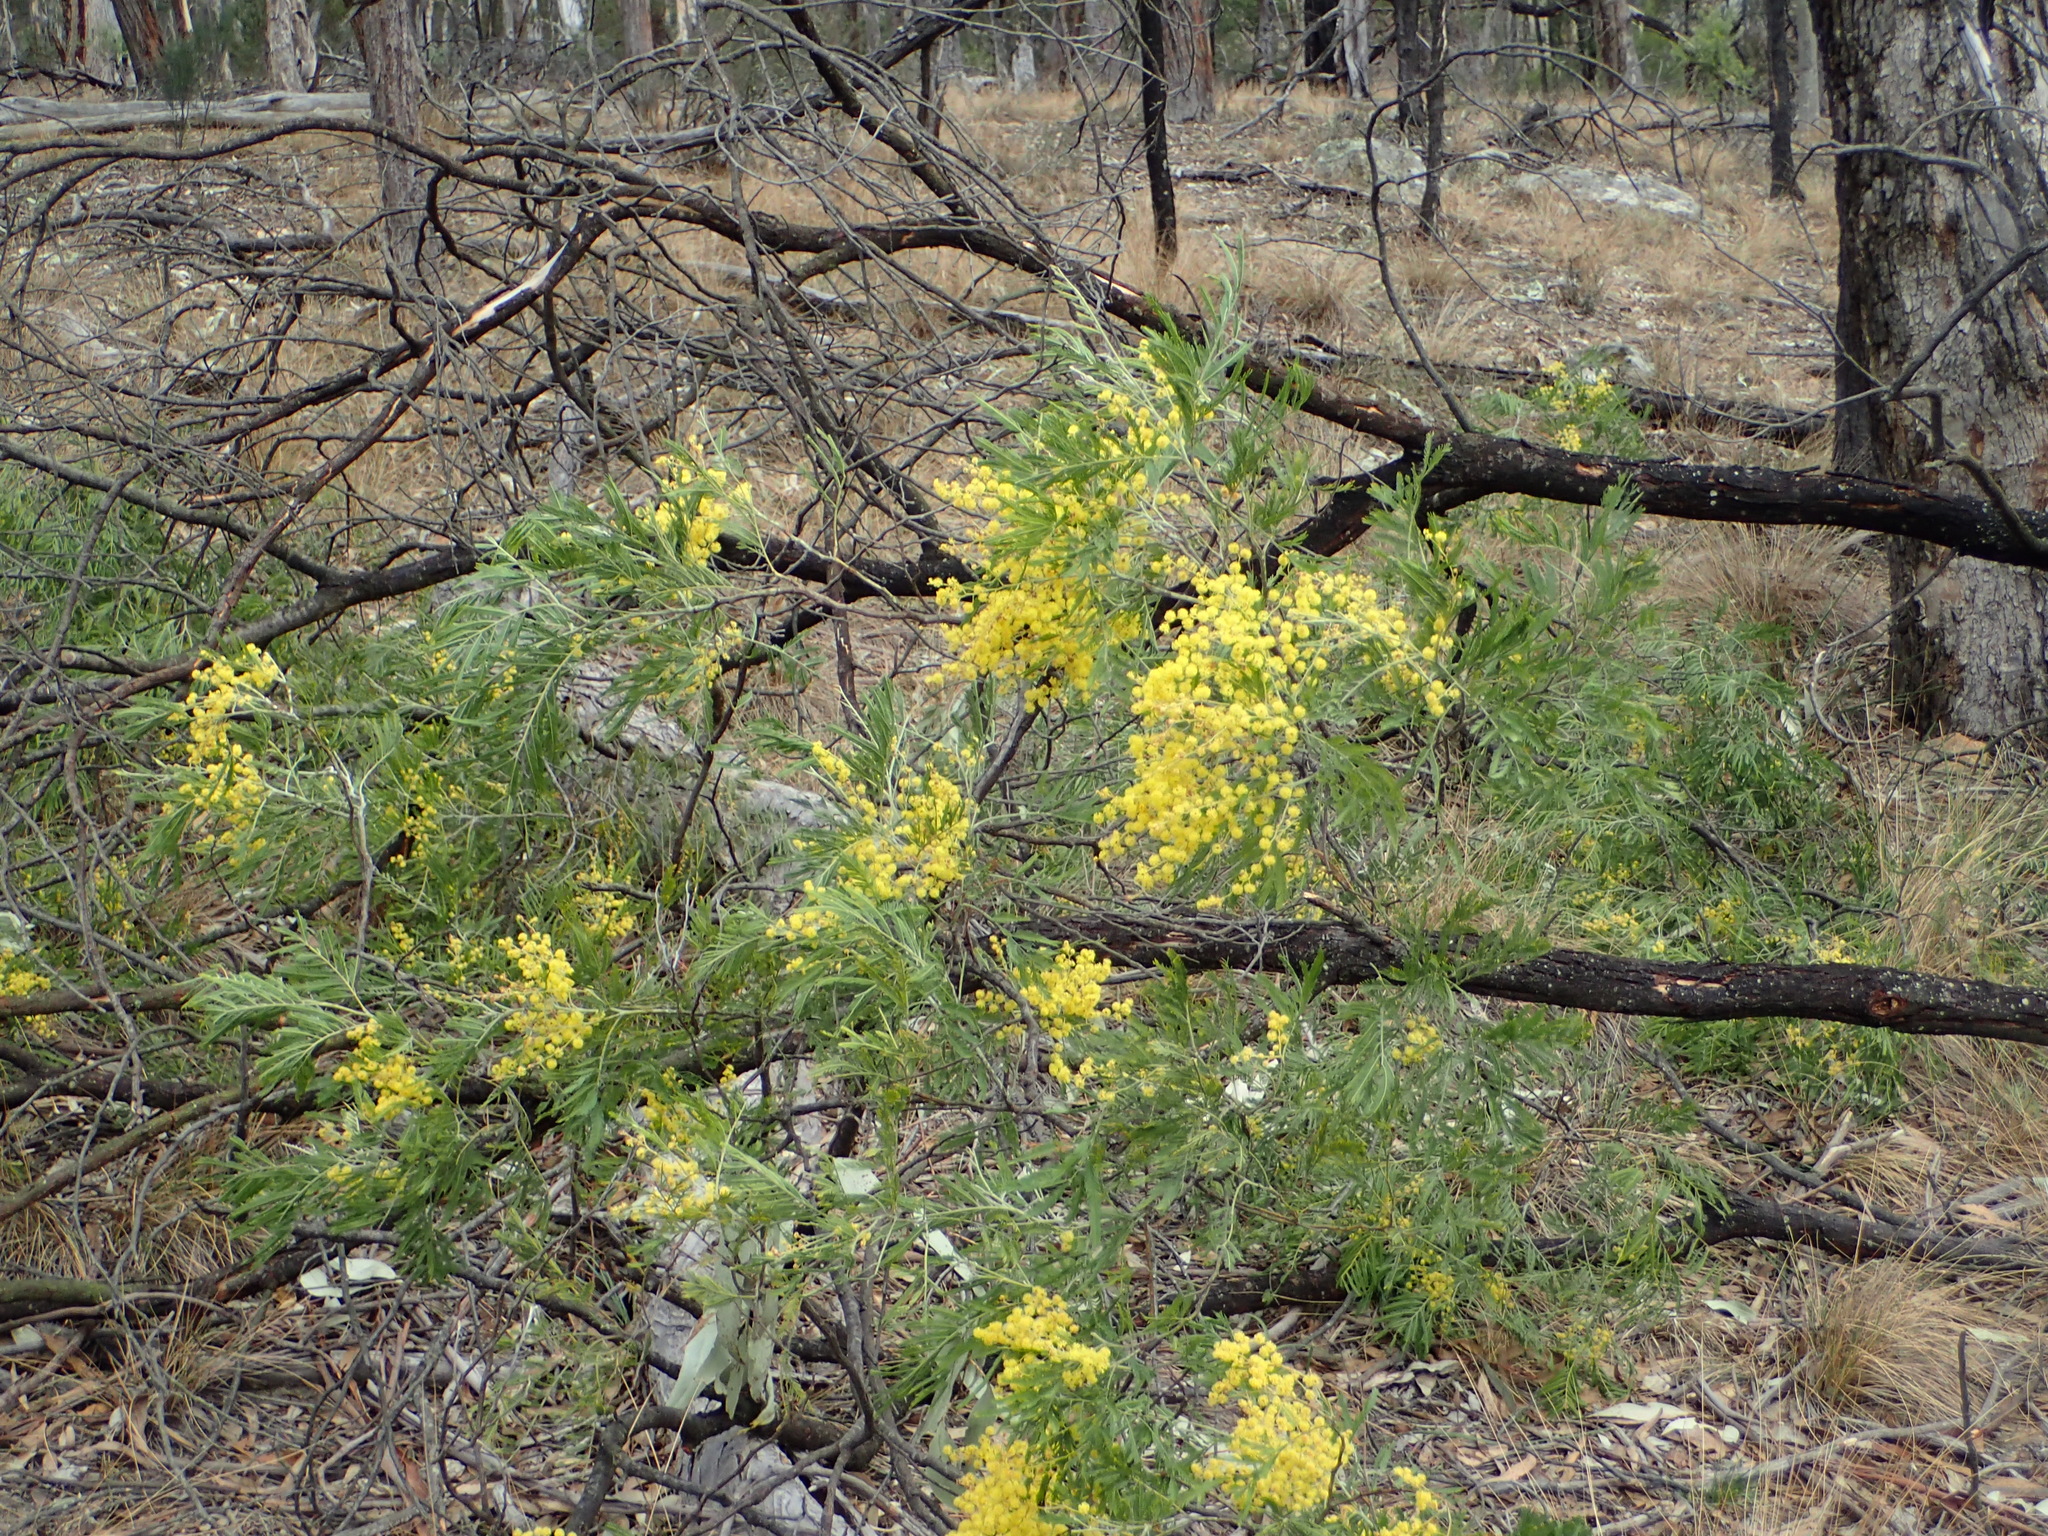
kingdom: Plantae
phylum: Tracheophyta
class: Magnoliopsida
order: Fabales
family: Fabaceae
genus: Acacia
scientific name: Acacia filicifolia
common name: Fern-leaved wattle
